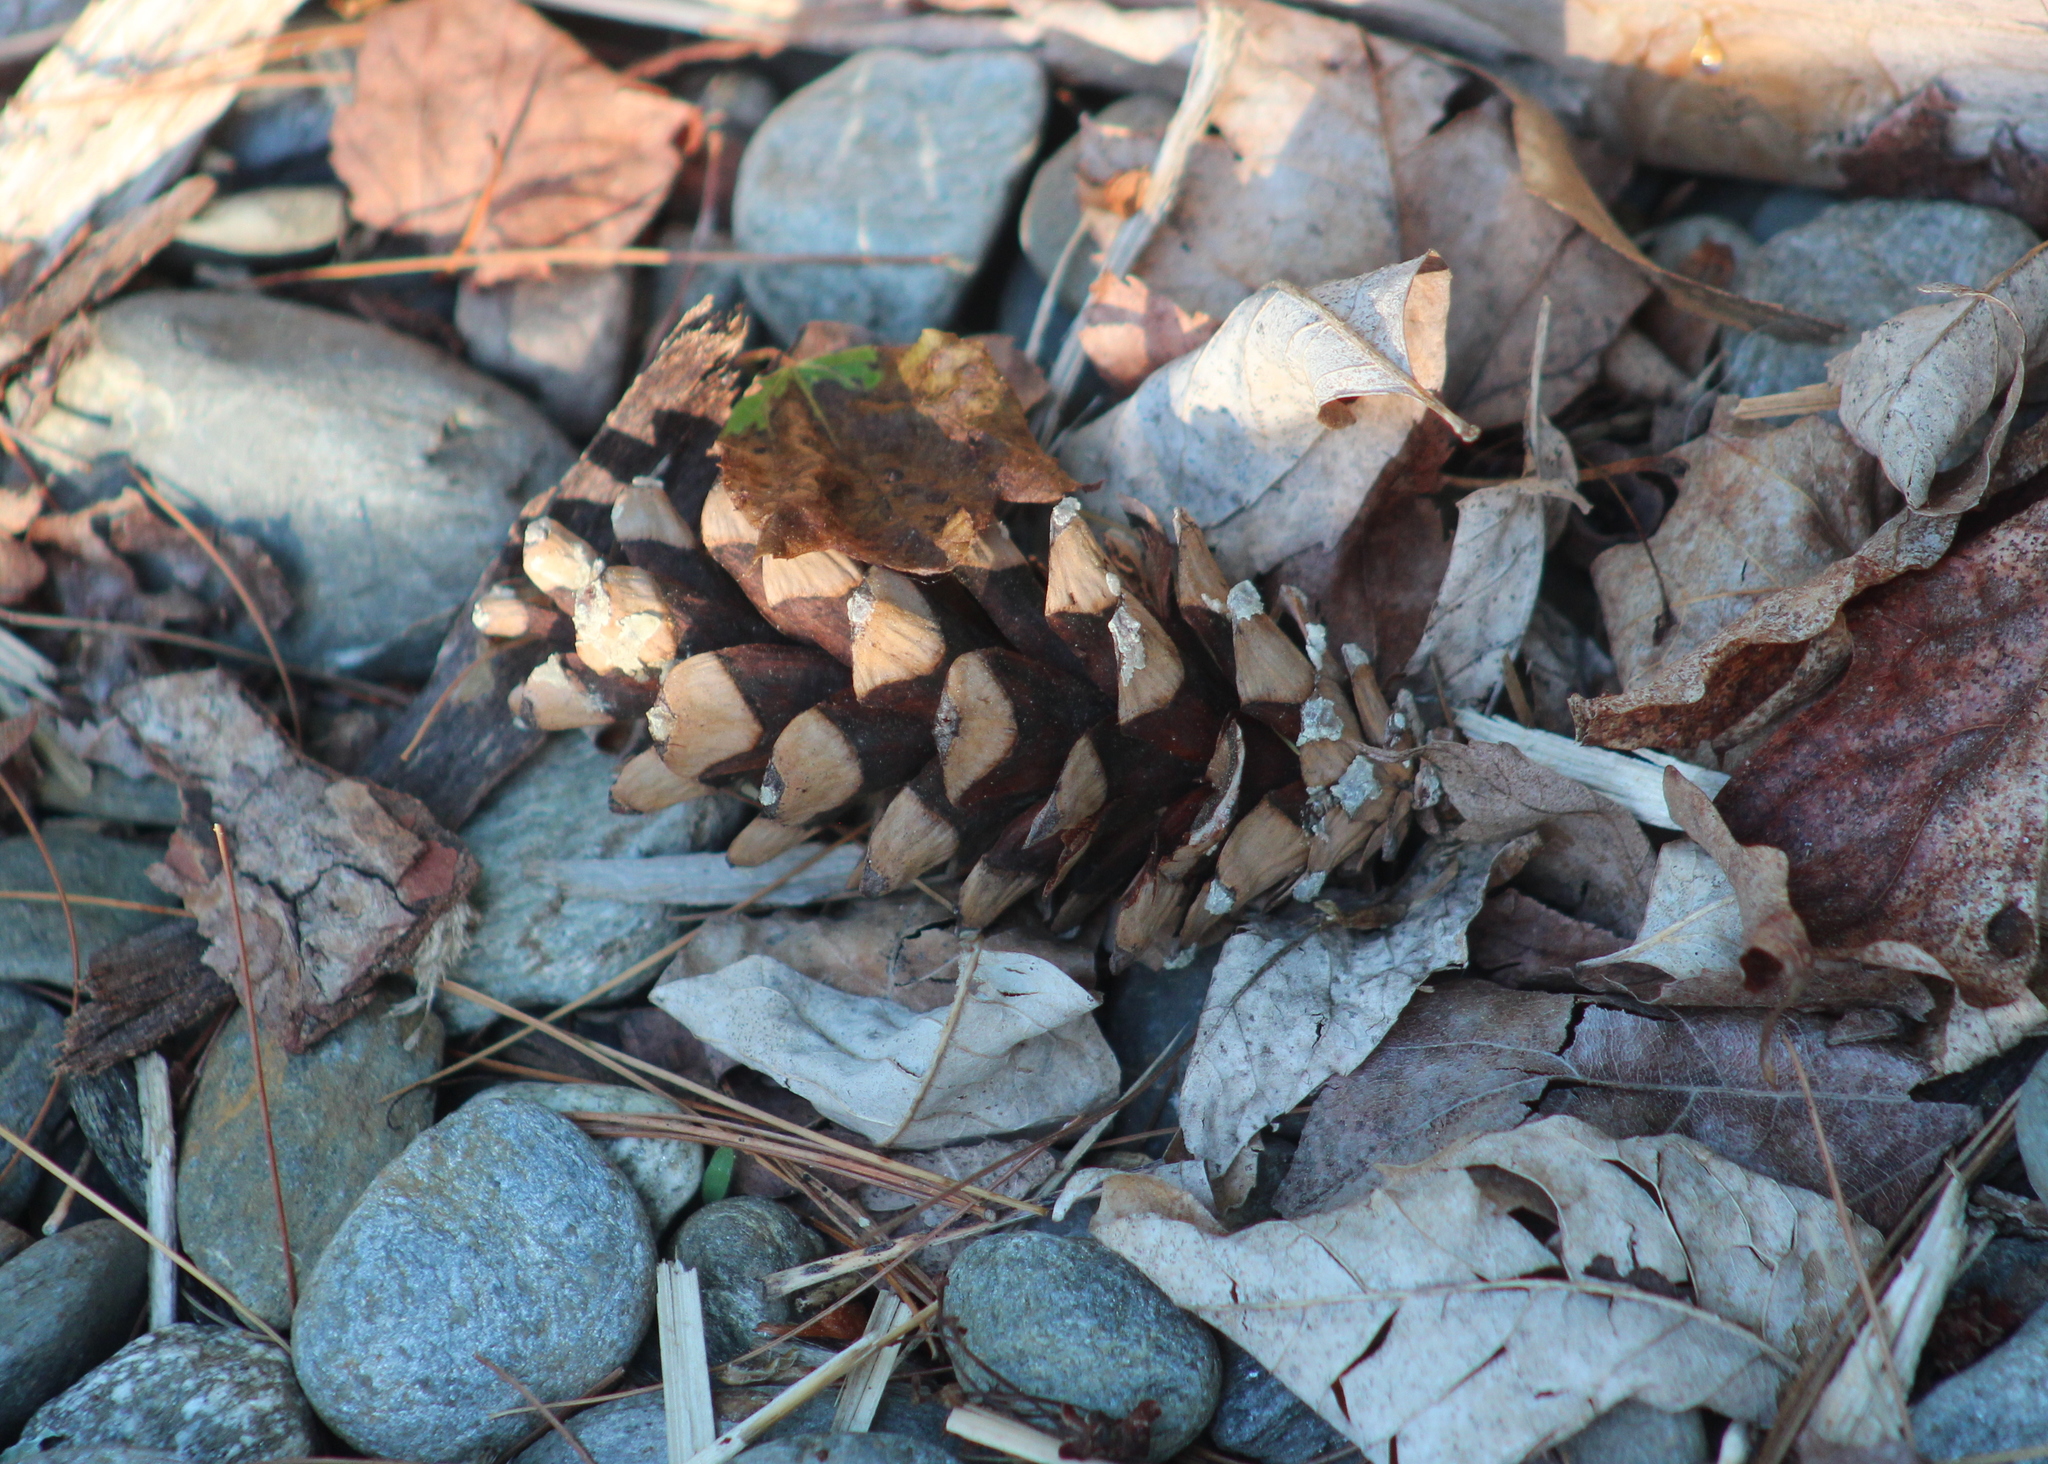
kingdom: Plantae
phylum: Tracheophyta
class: Pinopsida
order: Pinales
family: Pinaceae
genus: Pinus
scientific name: Pinus strobus
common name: Weymouth pine
